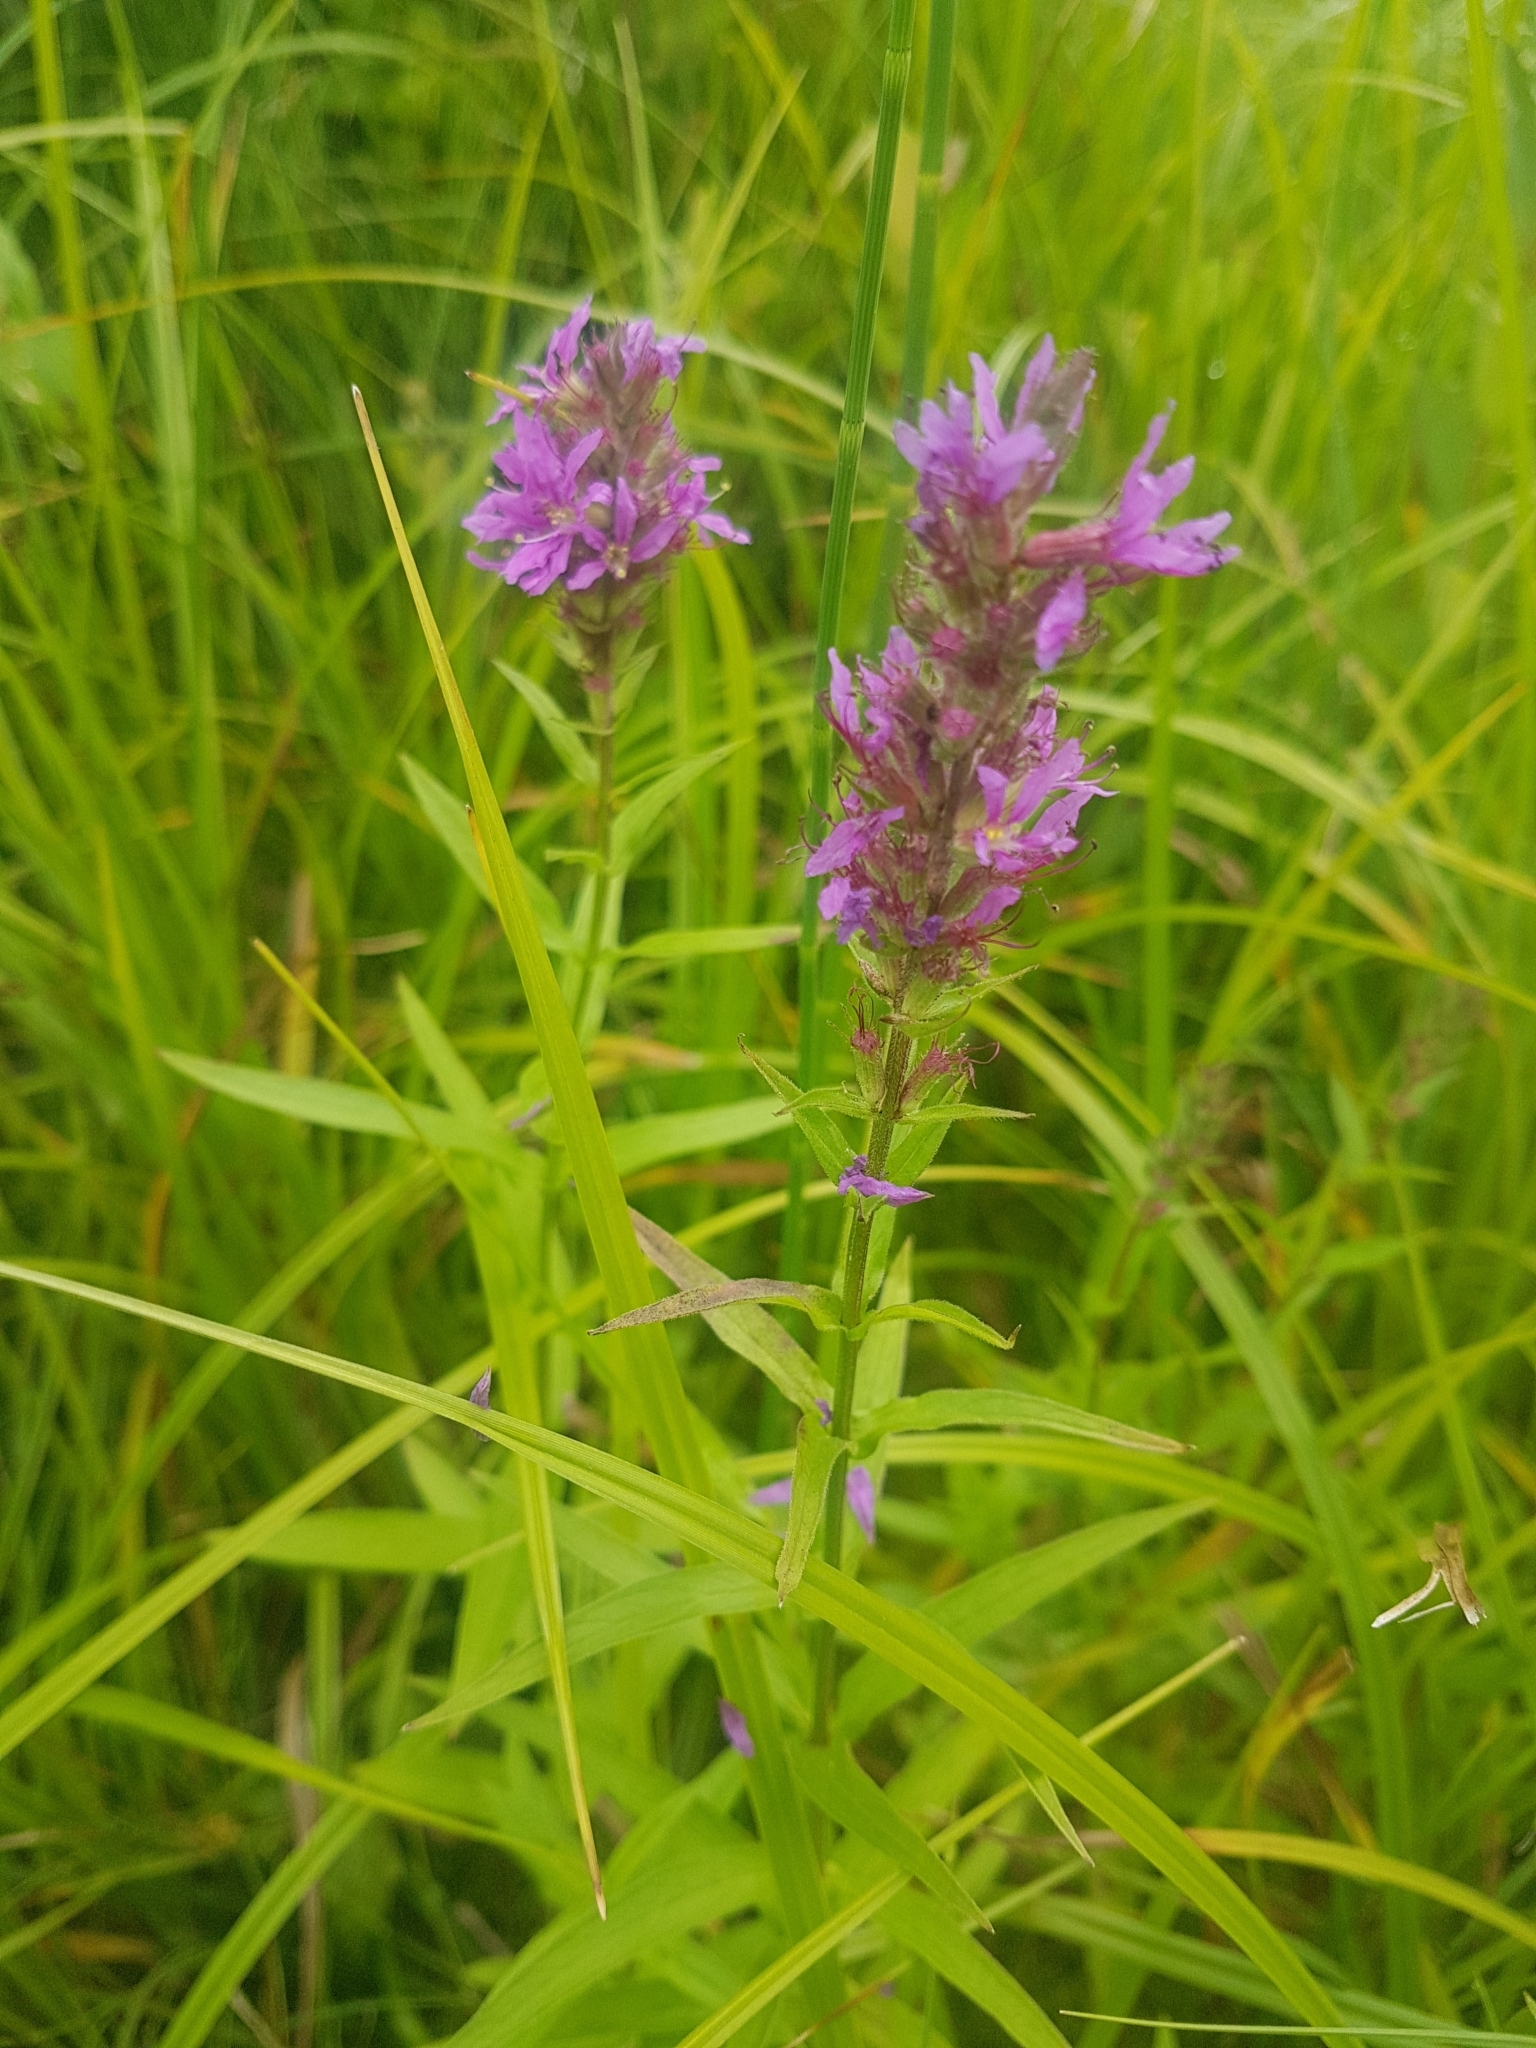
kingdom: Plantae
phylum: Tracheophyta
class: Magnoliopsida
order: Myrtales
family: Lythraceae
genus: Lythrum
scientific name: Lythrum salicaria
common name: Purple loosestrife
